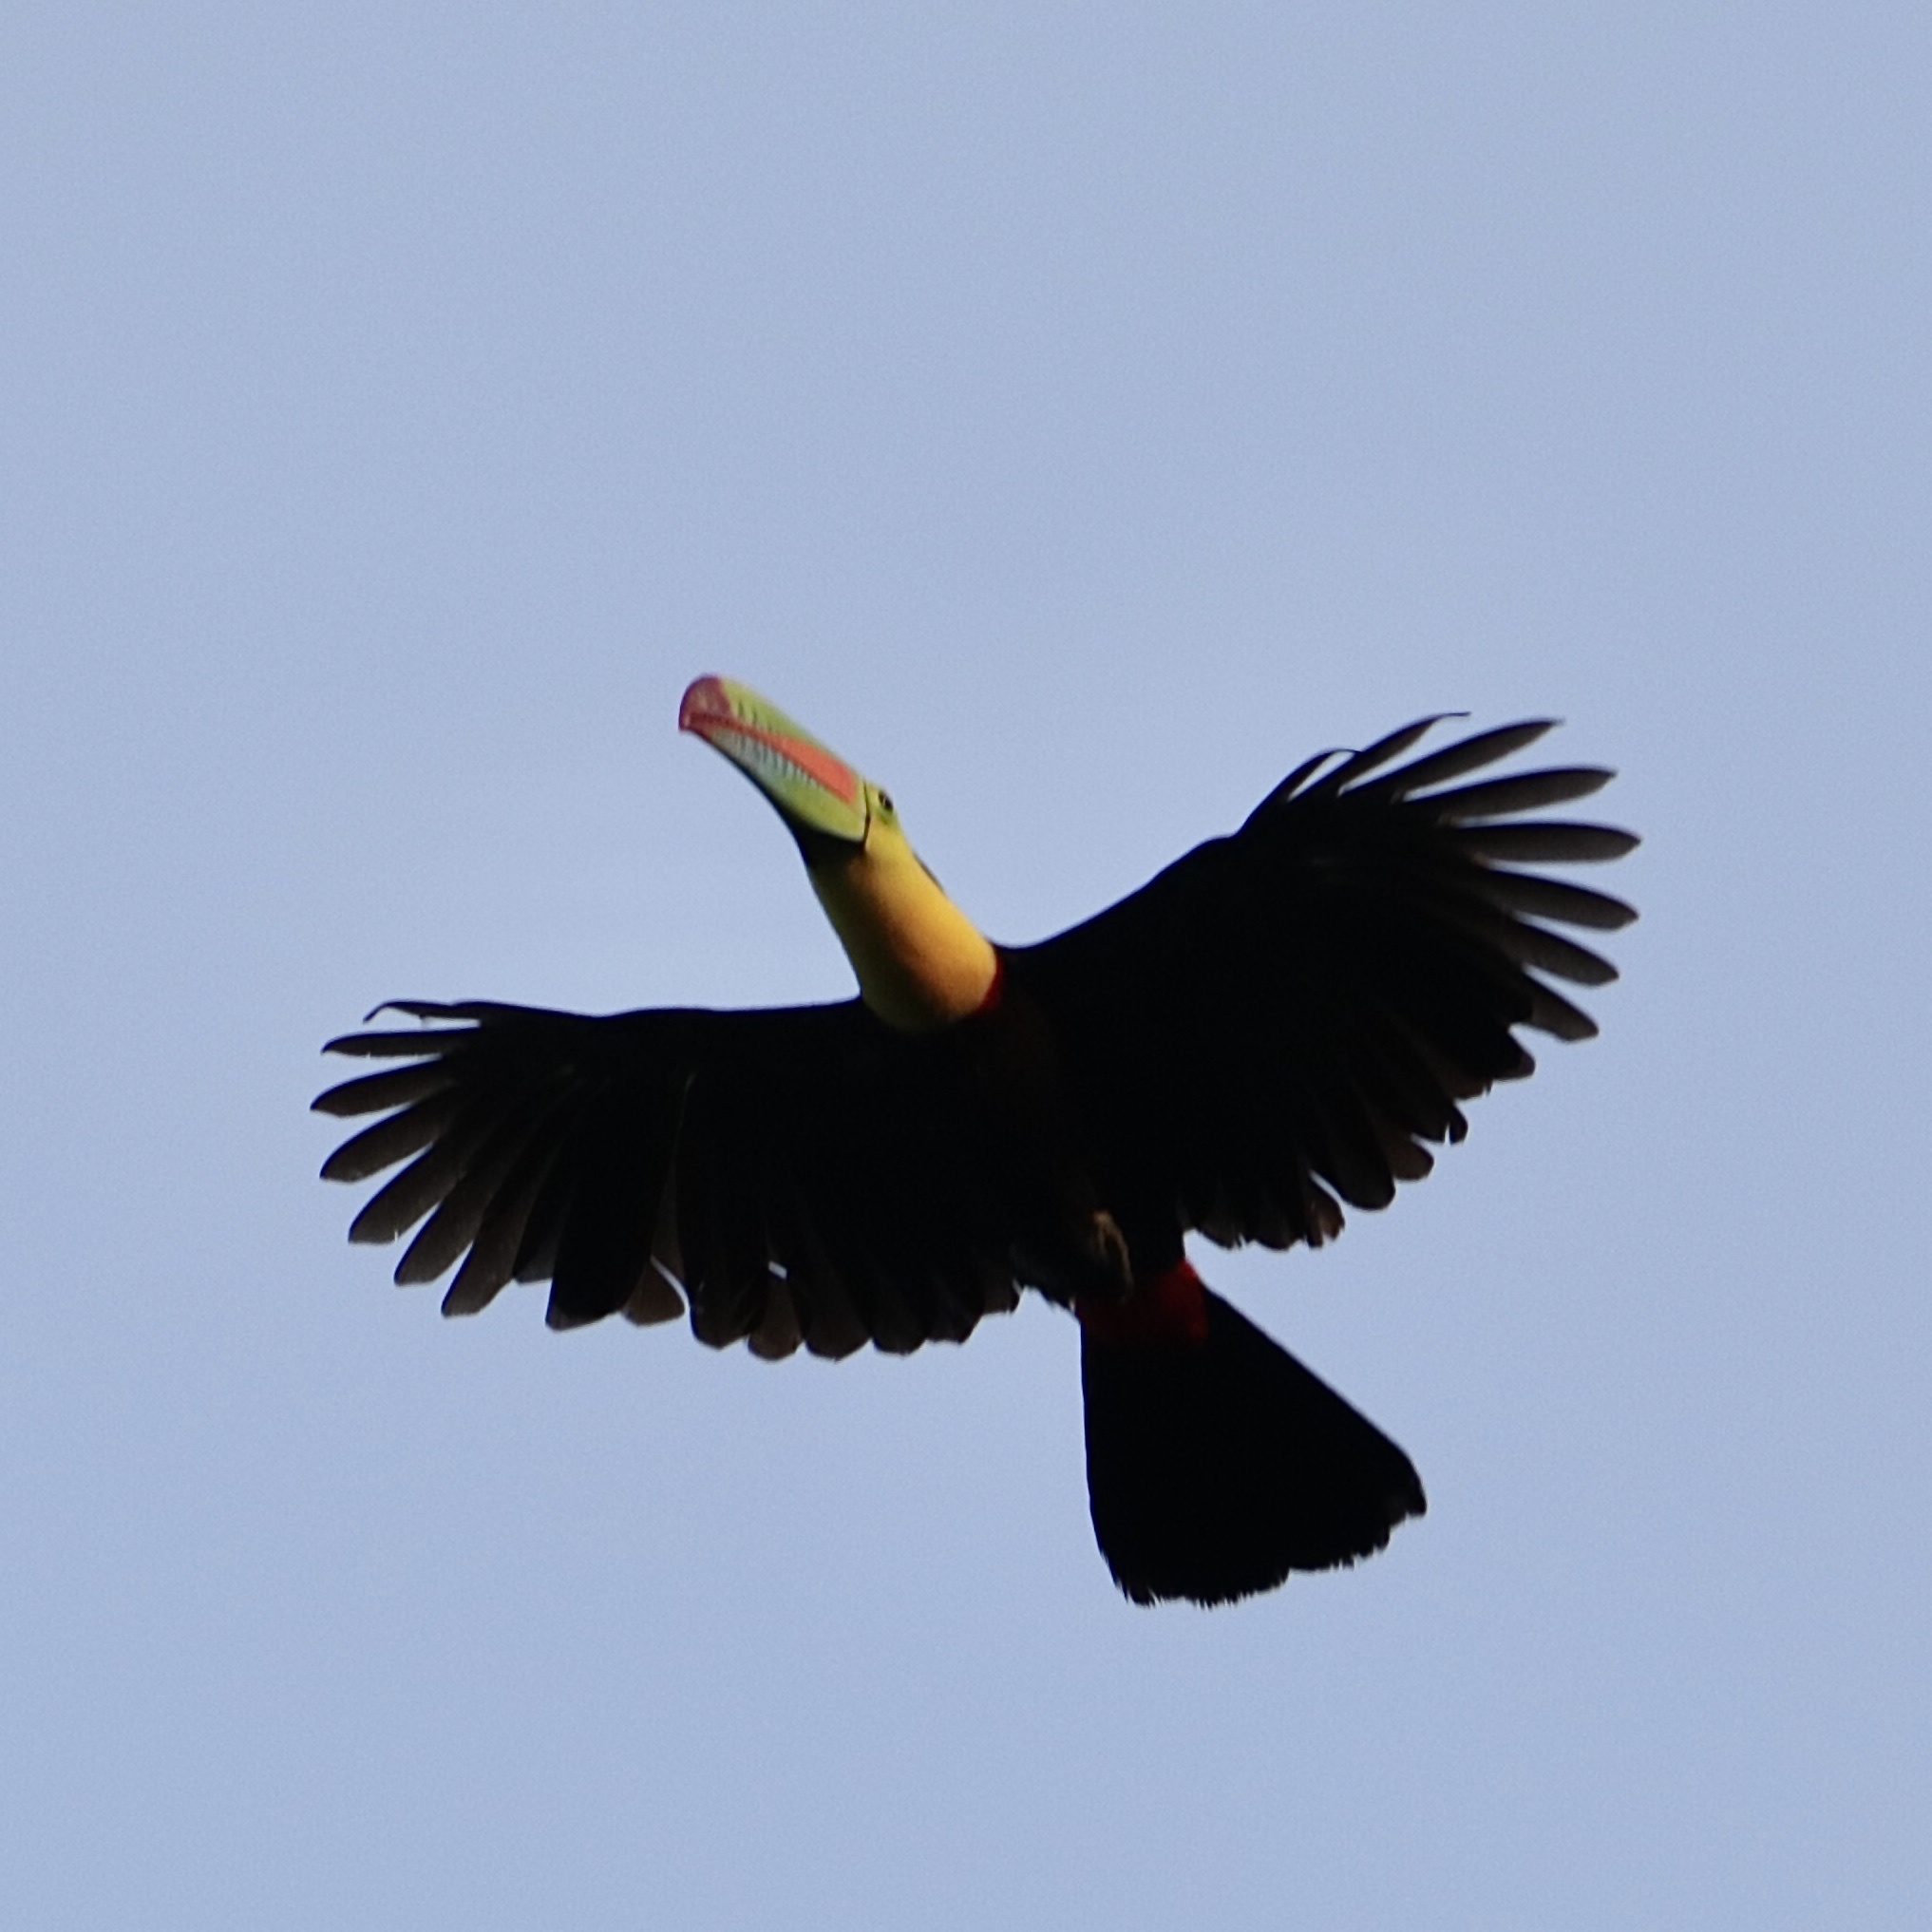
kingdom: Animalia
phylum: Chordata
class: Aves
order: Piciformes
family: Ramphastidae
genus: Ramphastos
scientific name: Ramphastos sulfuratus
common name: Keel-billed toucan
